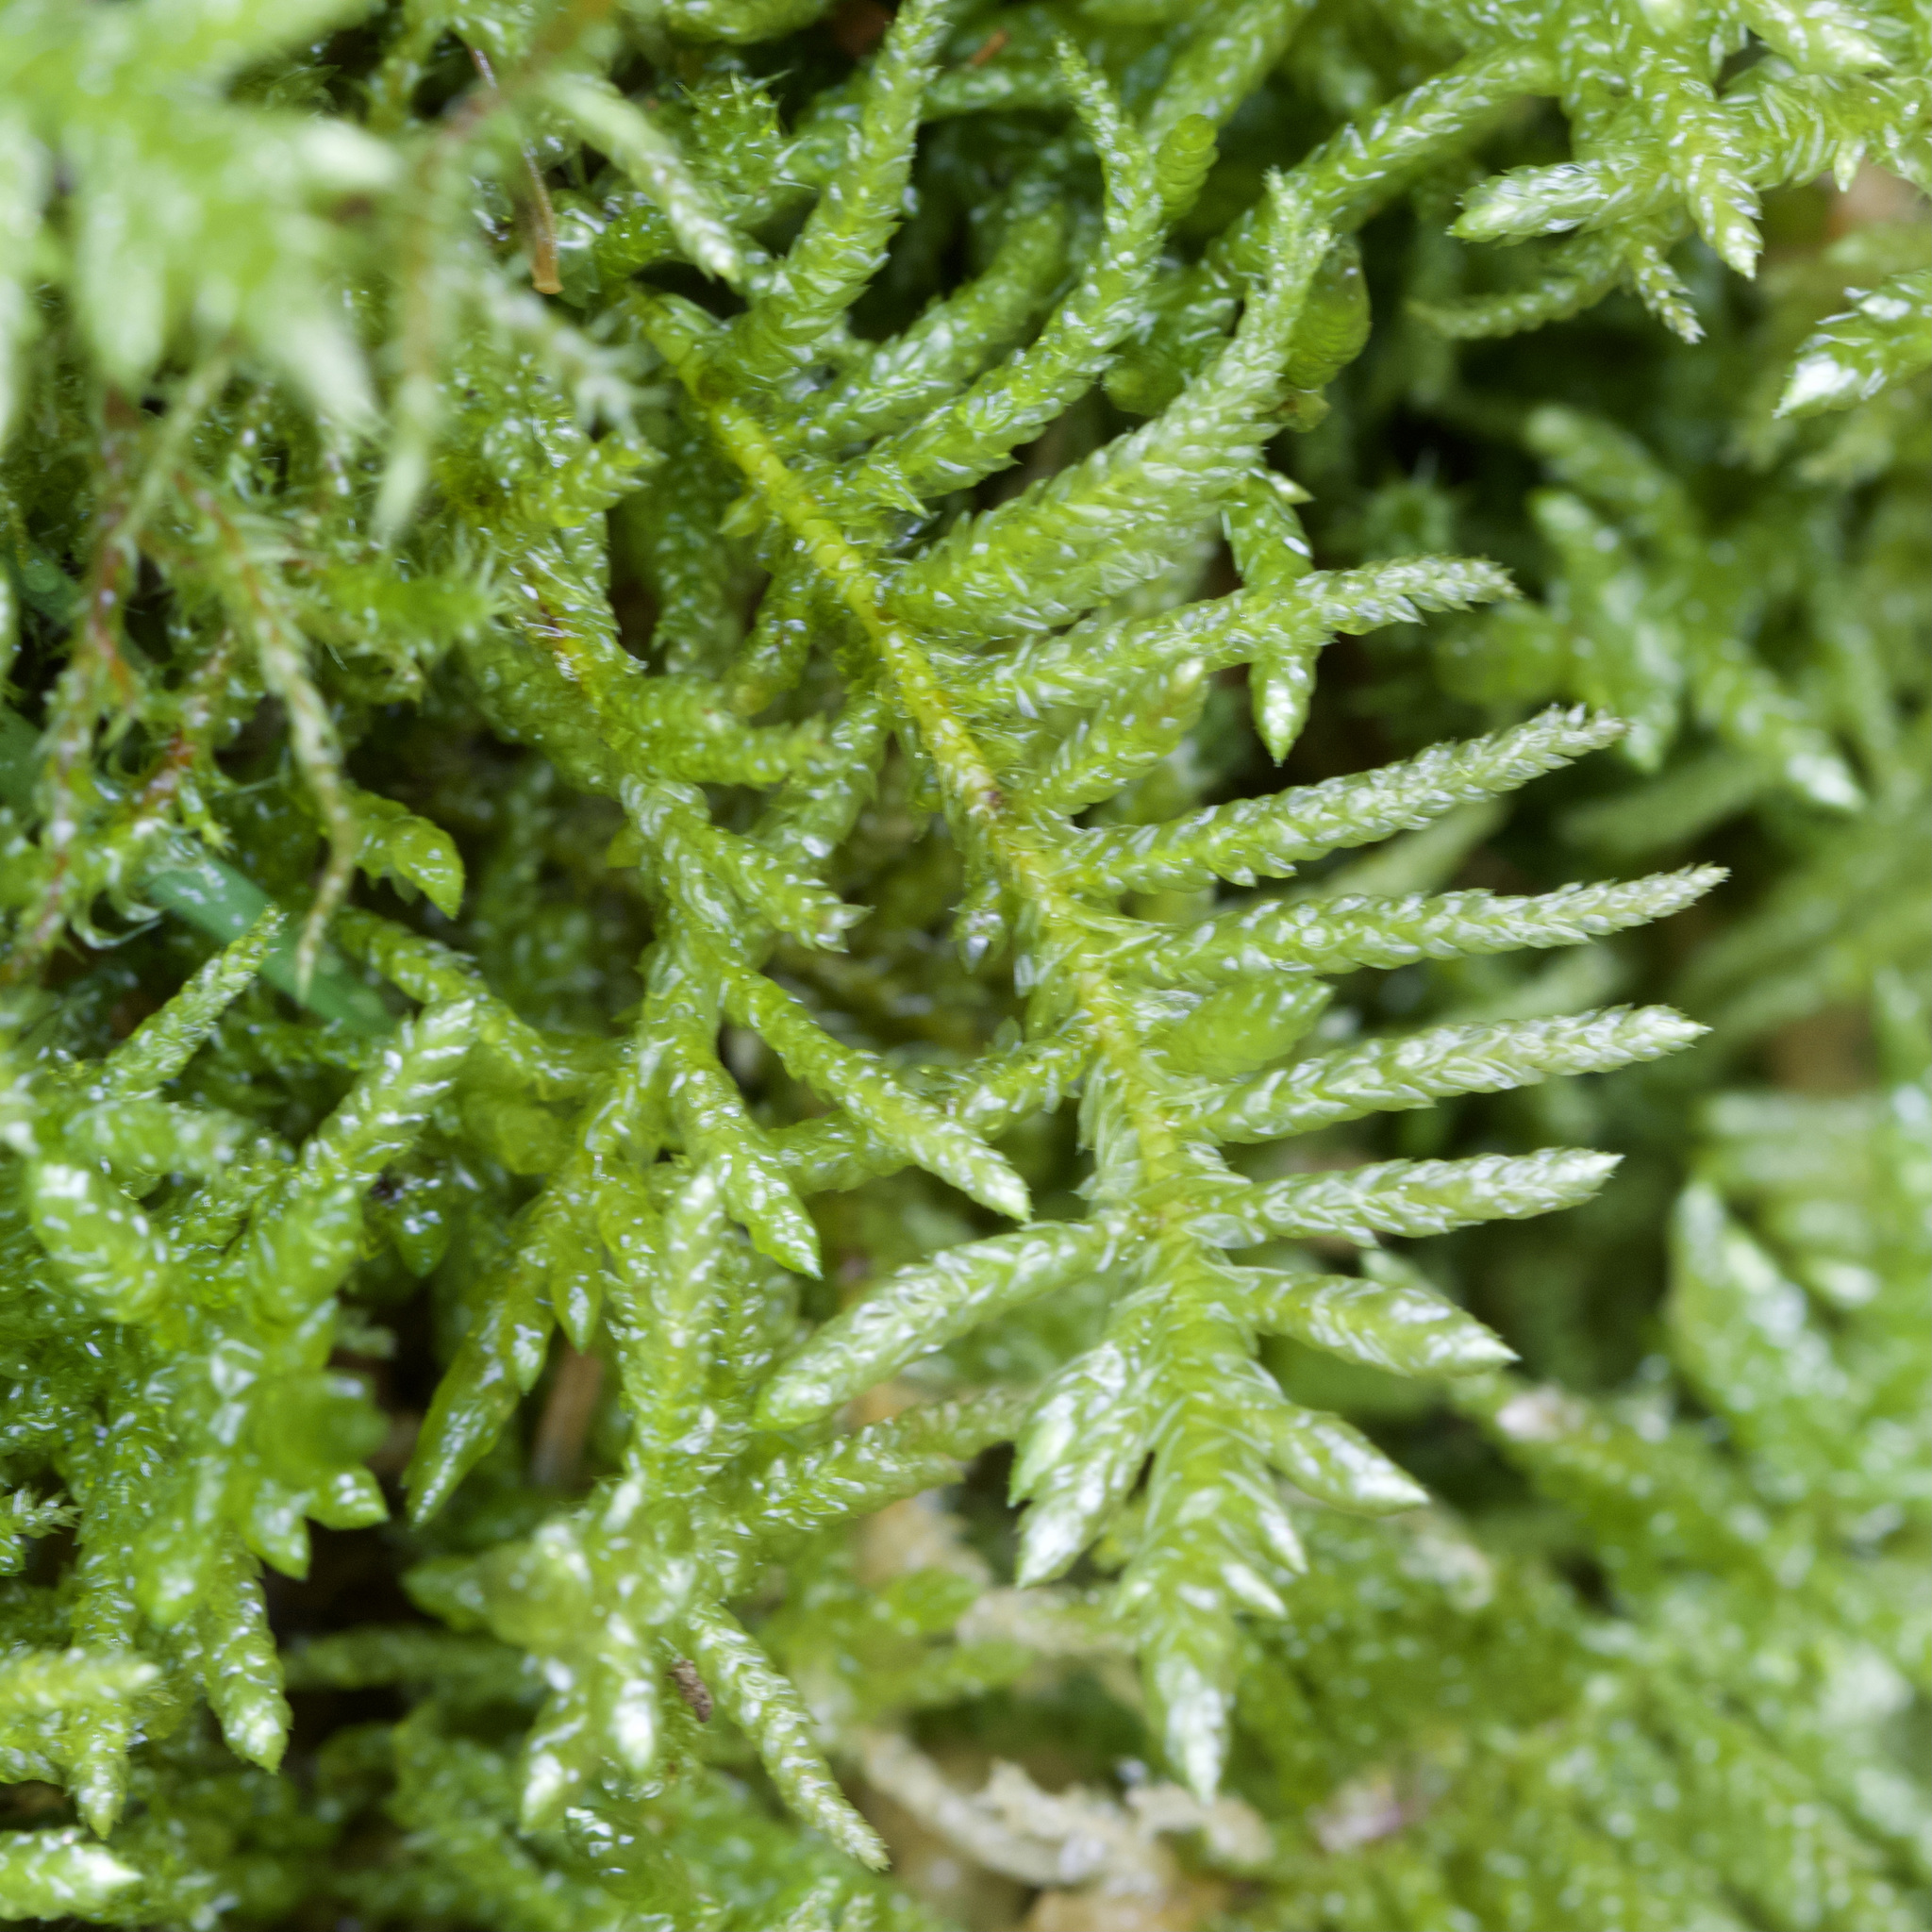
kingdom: Plantae
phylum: Bryophyta
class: Bryopsida
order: Hypnales
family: Brachytheciaceae
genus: Pseudoscleropodium
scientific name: Pseudoscleropodium purum
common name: Neat feather-moss
